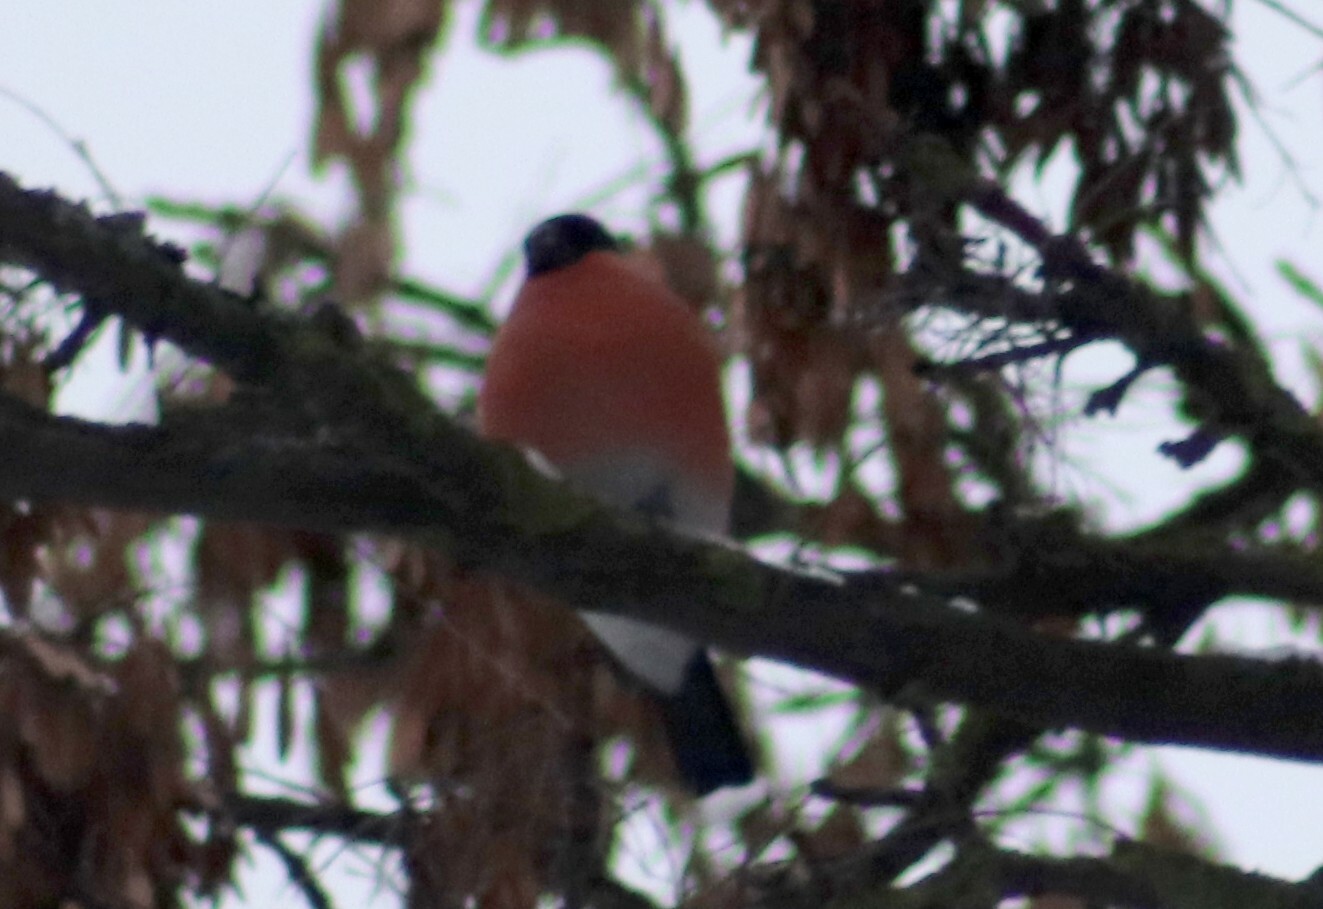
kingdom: Animalia
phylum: Chordata
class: Aves
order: Passeriformes
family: Fringillidae
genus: Pyrrhula
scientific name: Pyrrhula pyrrhula
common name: Eurasian bullfinch
